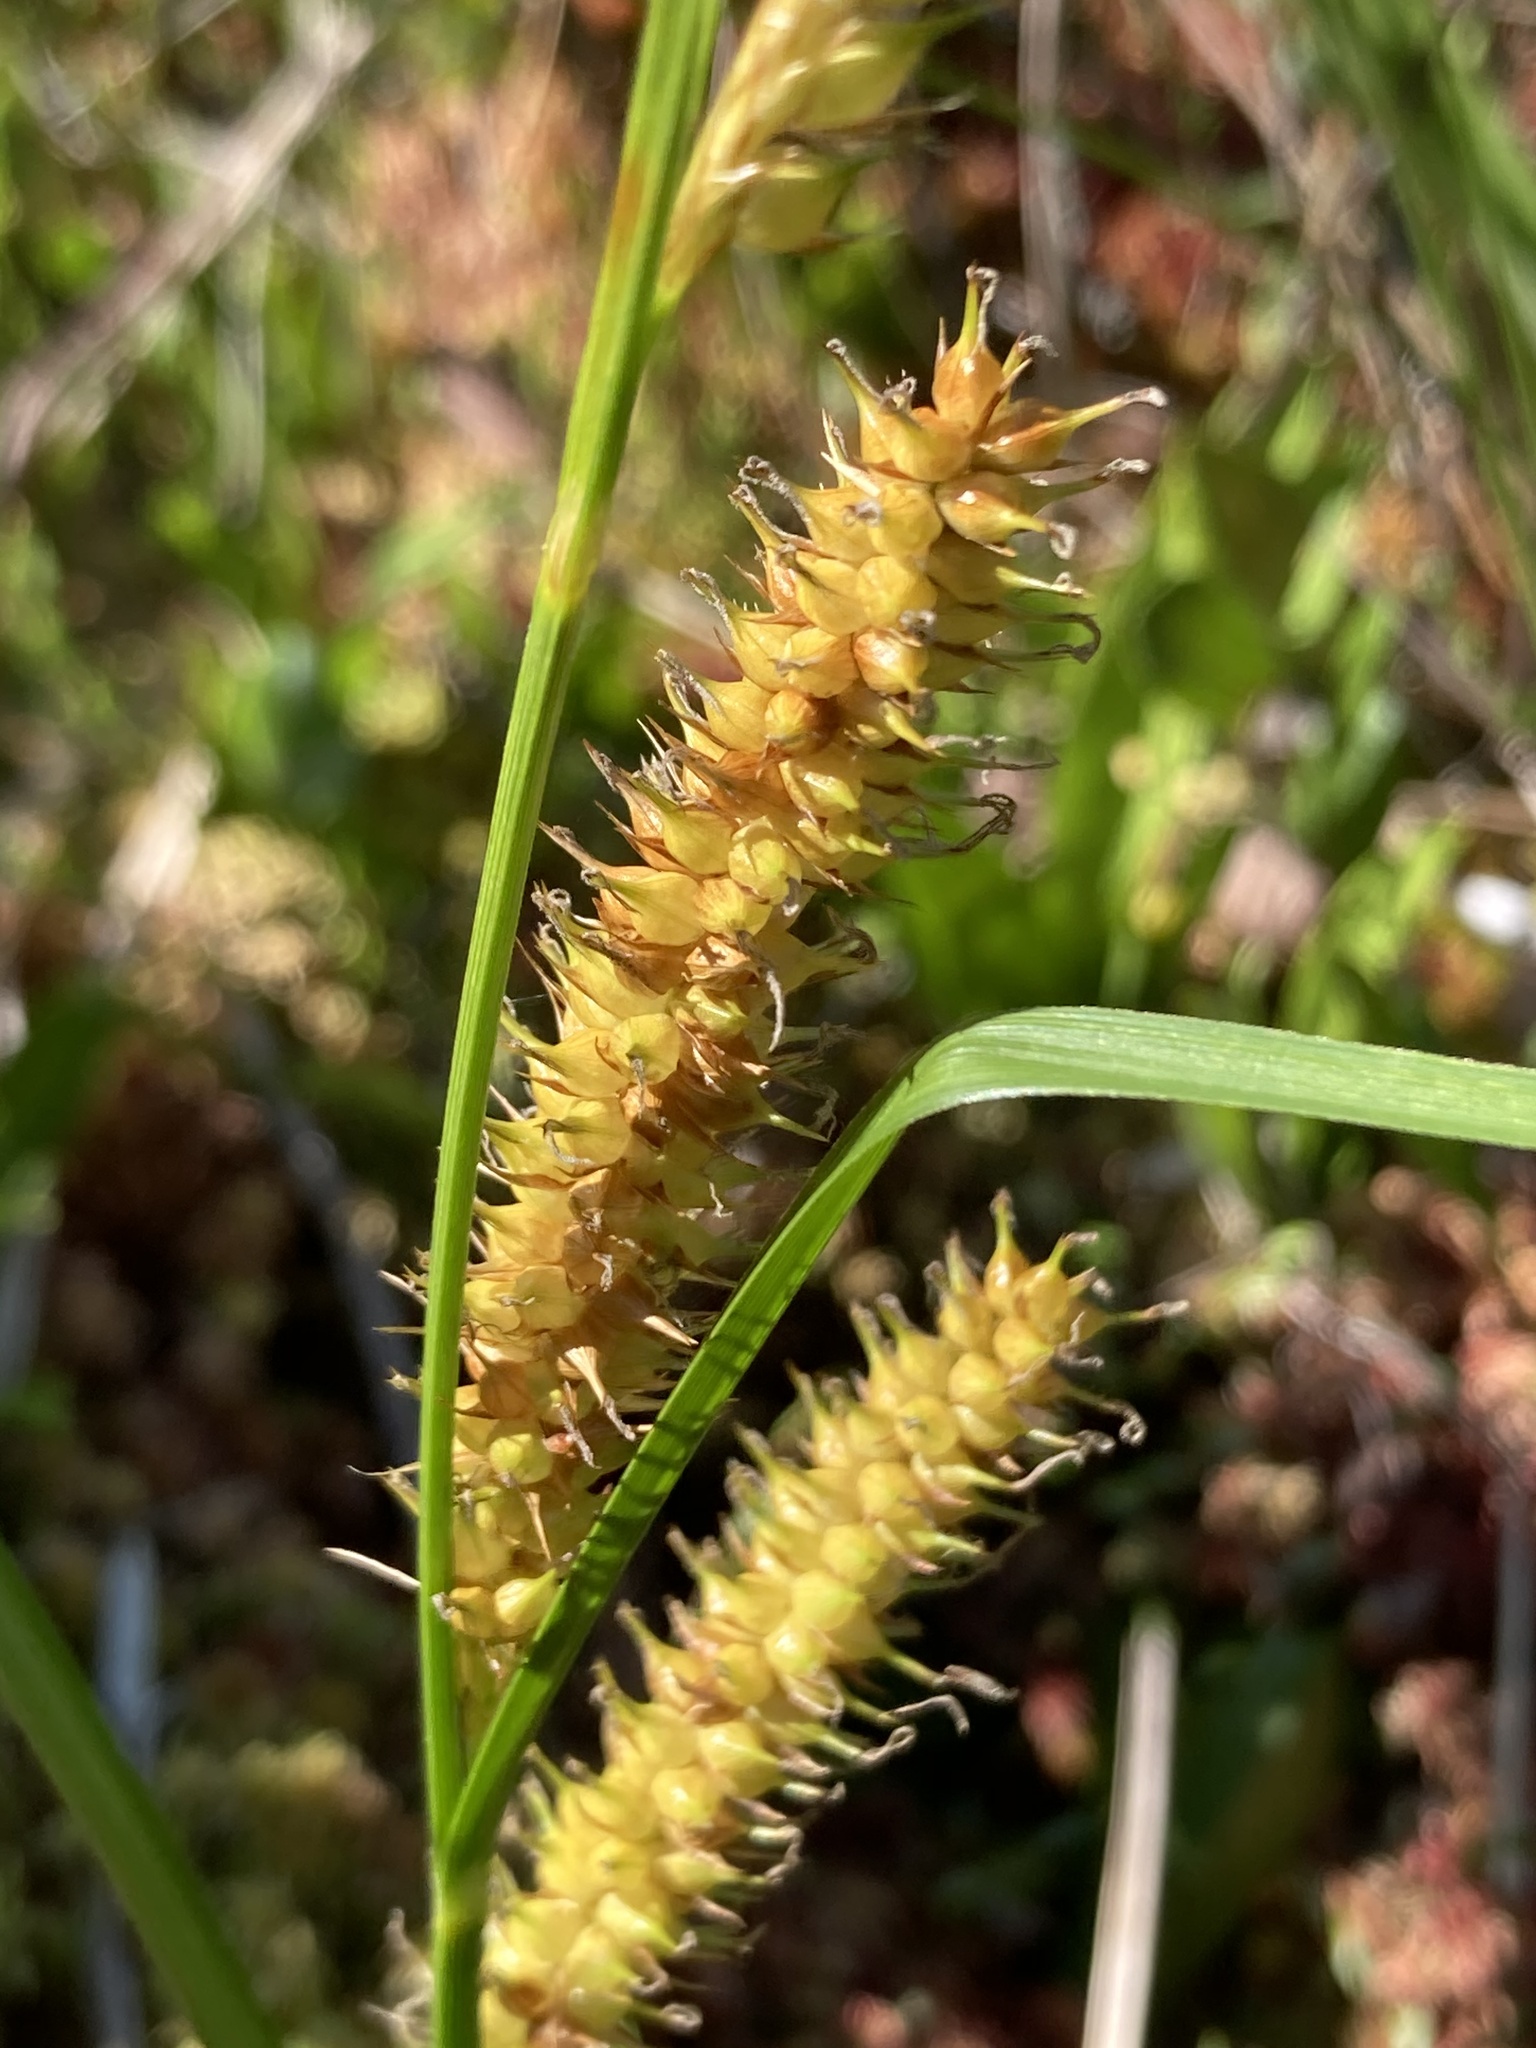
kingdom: Plantae
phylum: Tracheophyta
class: Liliopsida
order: Poales
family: Cyperaceae
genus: Carex
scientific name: Carex utriculata
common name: Beaked sedge
